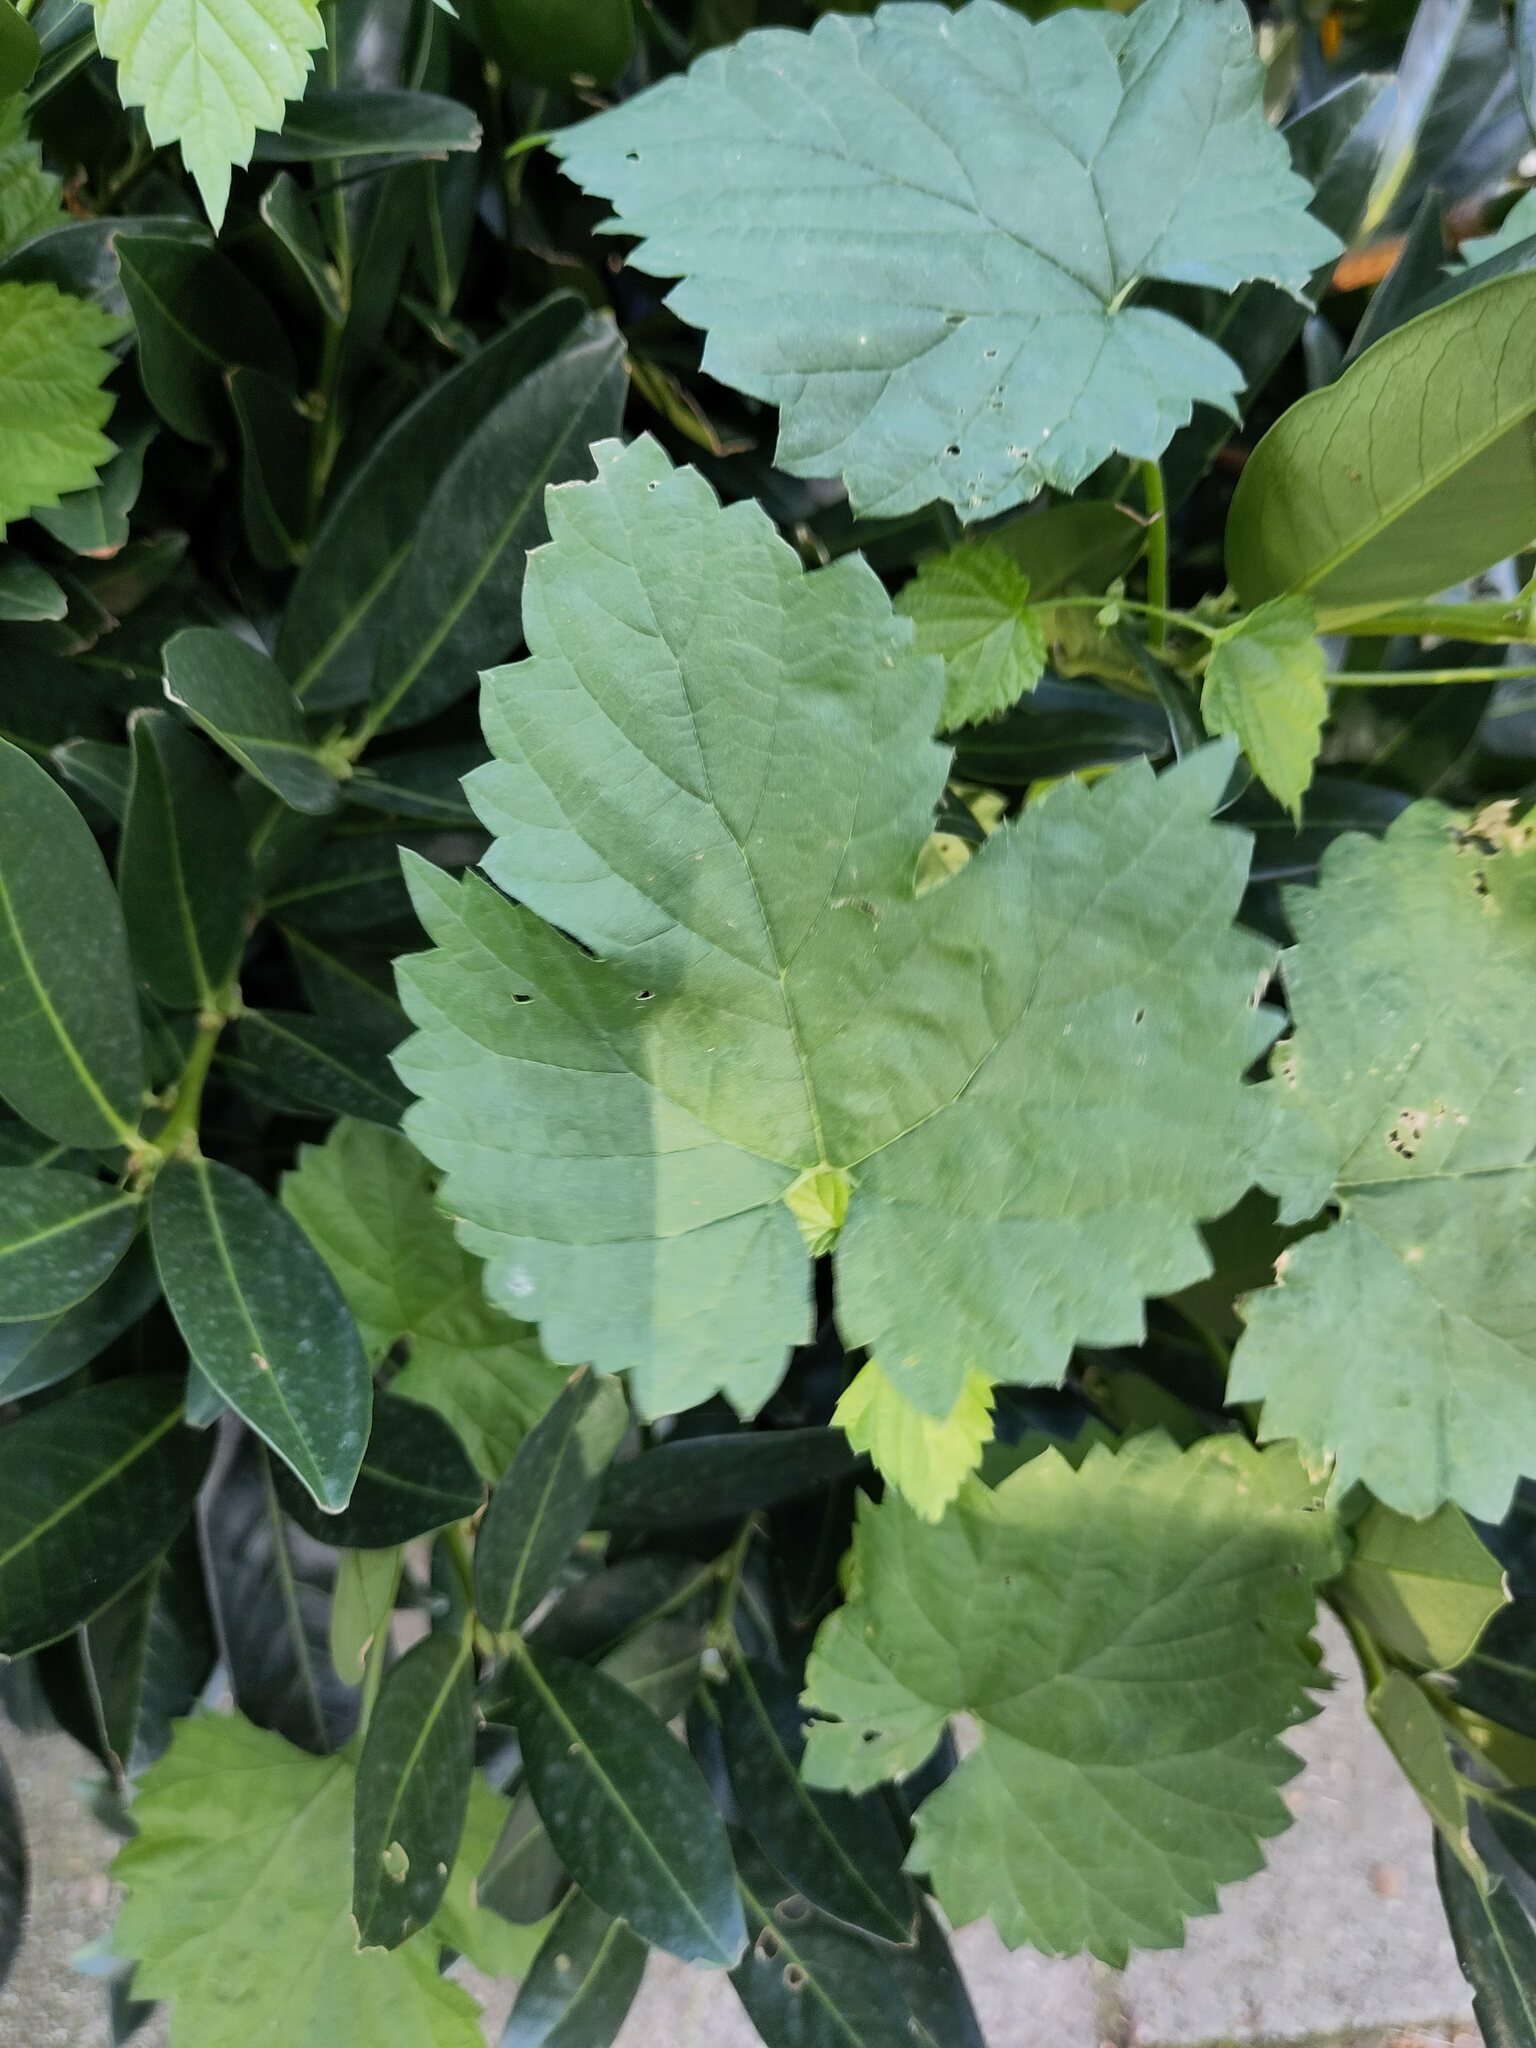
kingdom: Plantae
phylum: Tracheophyta
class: Magnoliopsida
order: Rosales
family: Cannabaceae
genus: Humulus
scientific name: Humulus lupulus
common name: Hop
